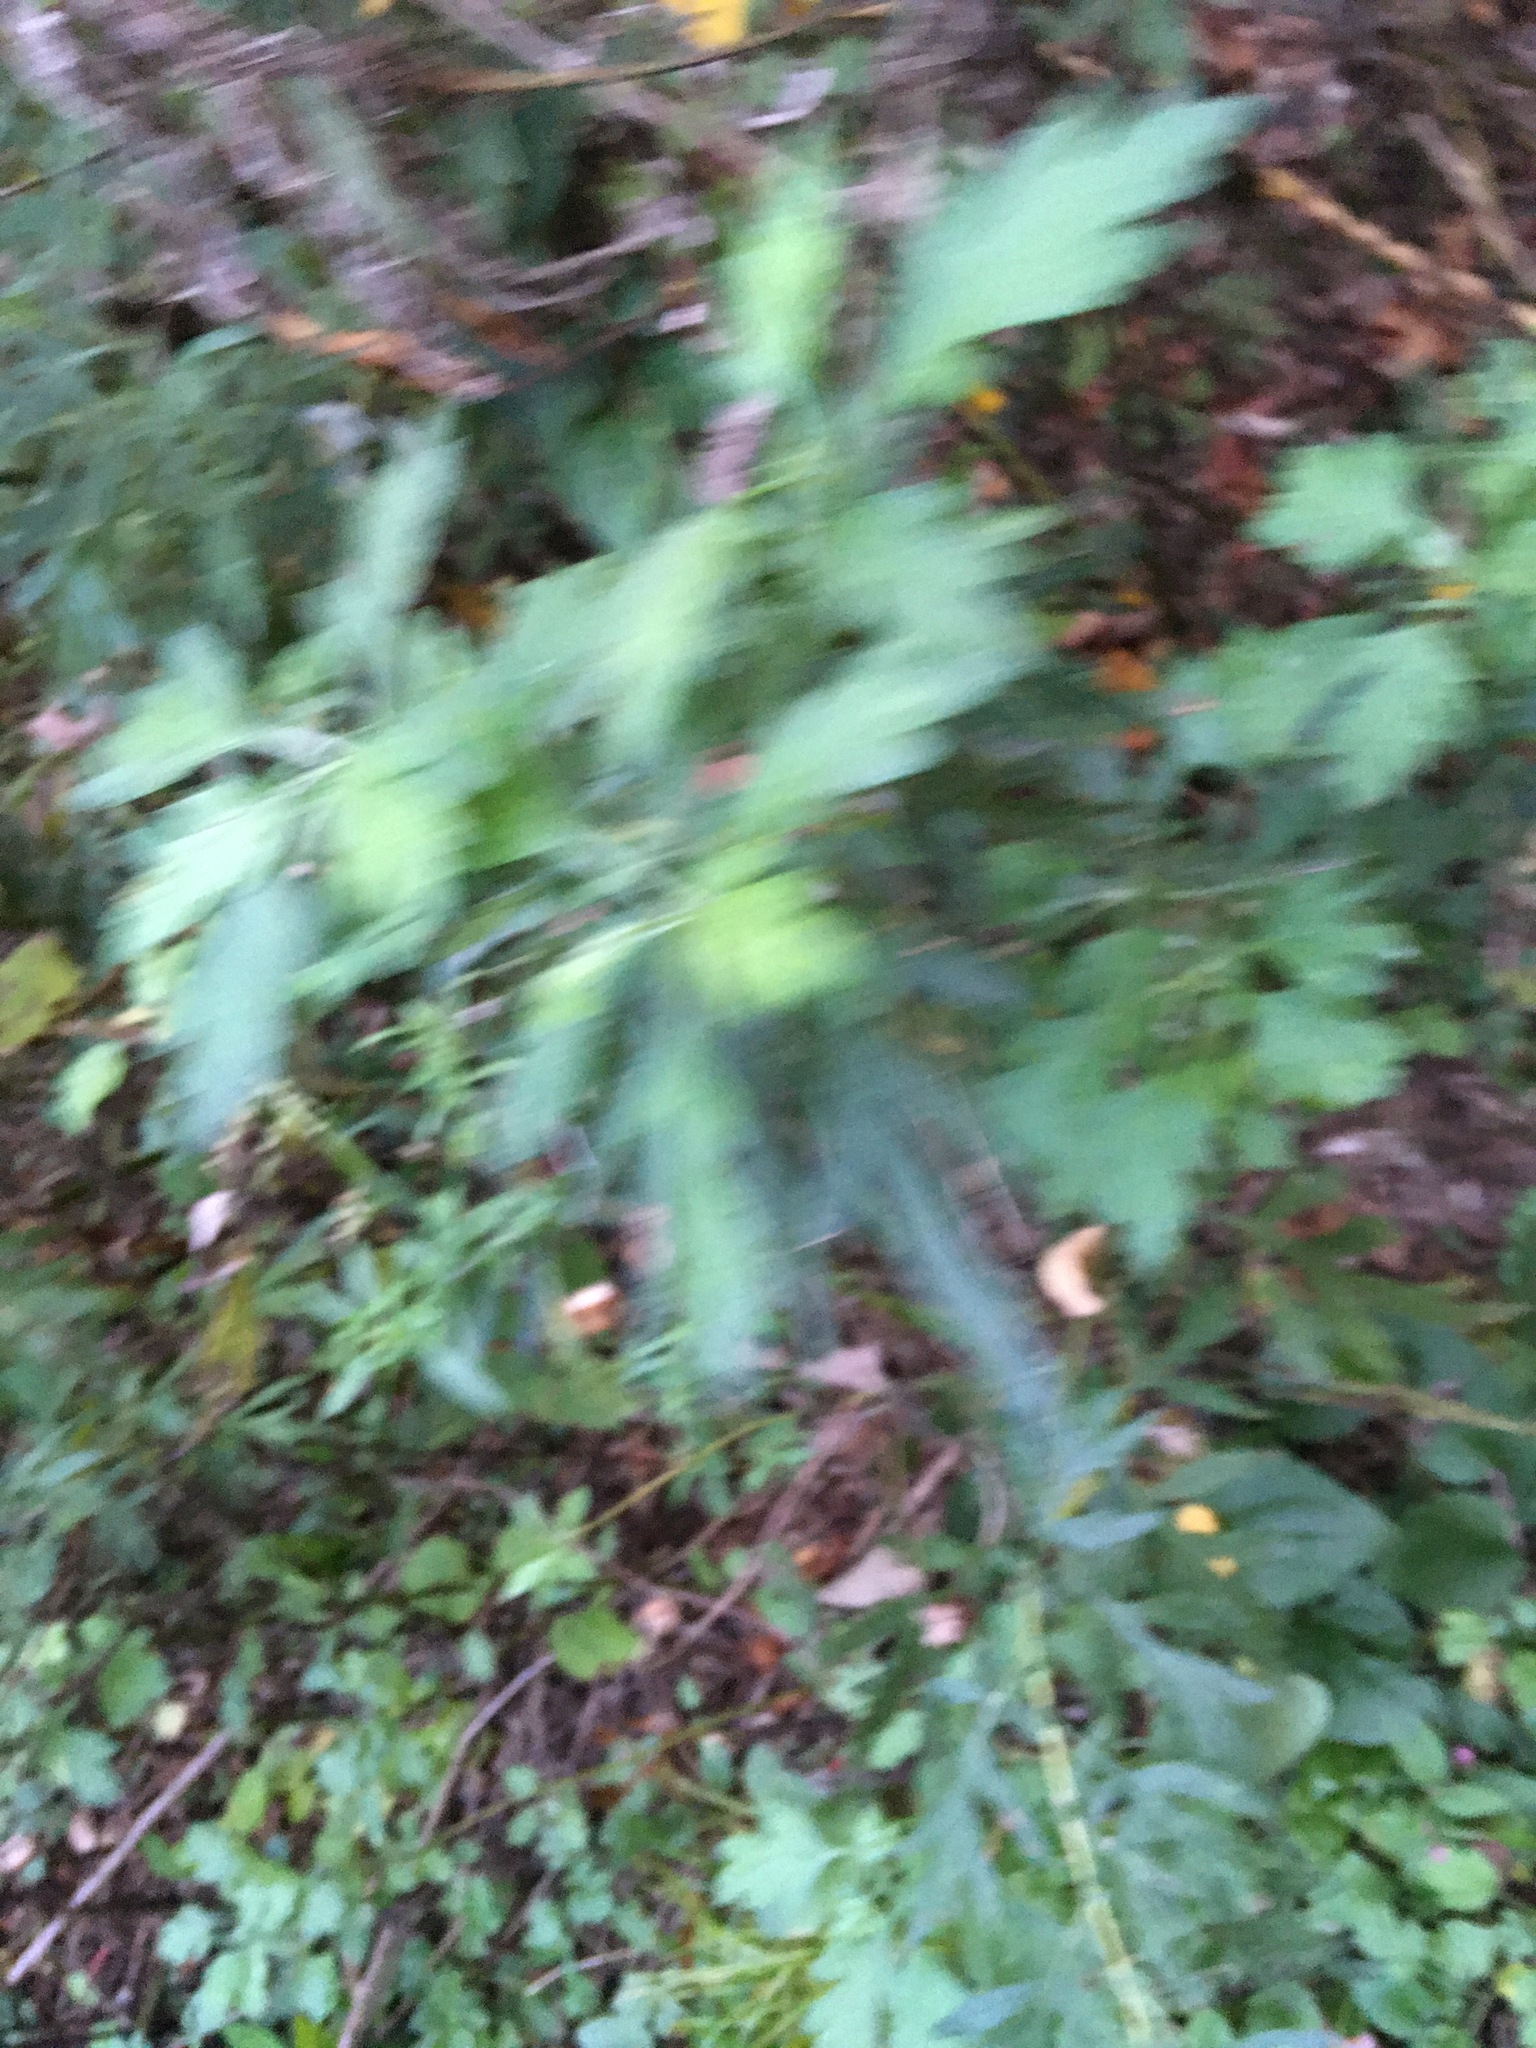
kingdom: Plantae
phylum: Tracheophyta
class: Magnoliopsida
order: Asterales
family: Asteraceae
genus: Artemisia
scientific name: Artemisia vulgaris
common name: Mugwort
